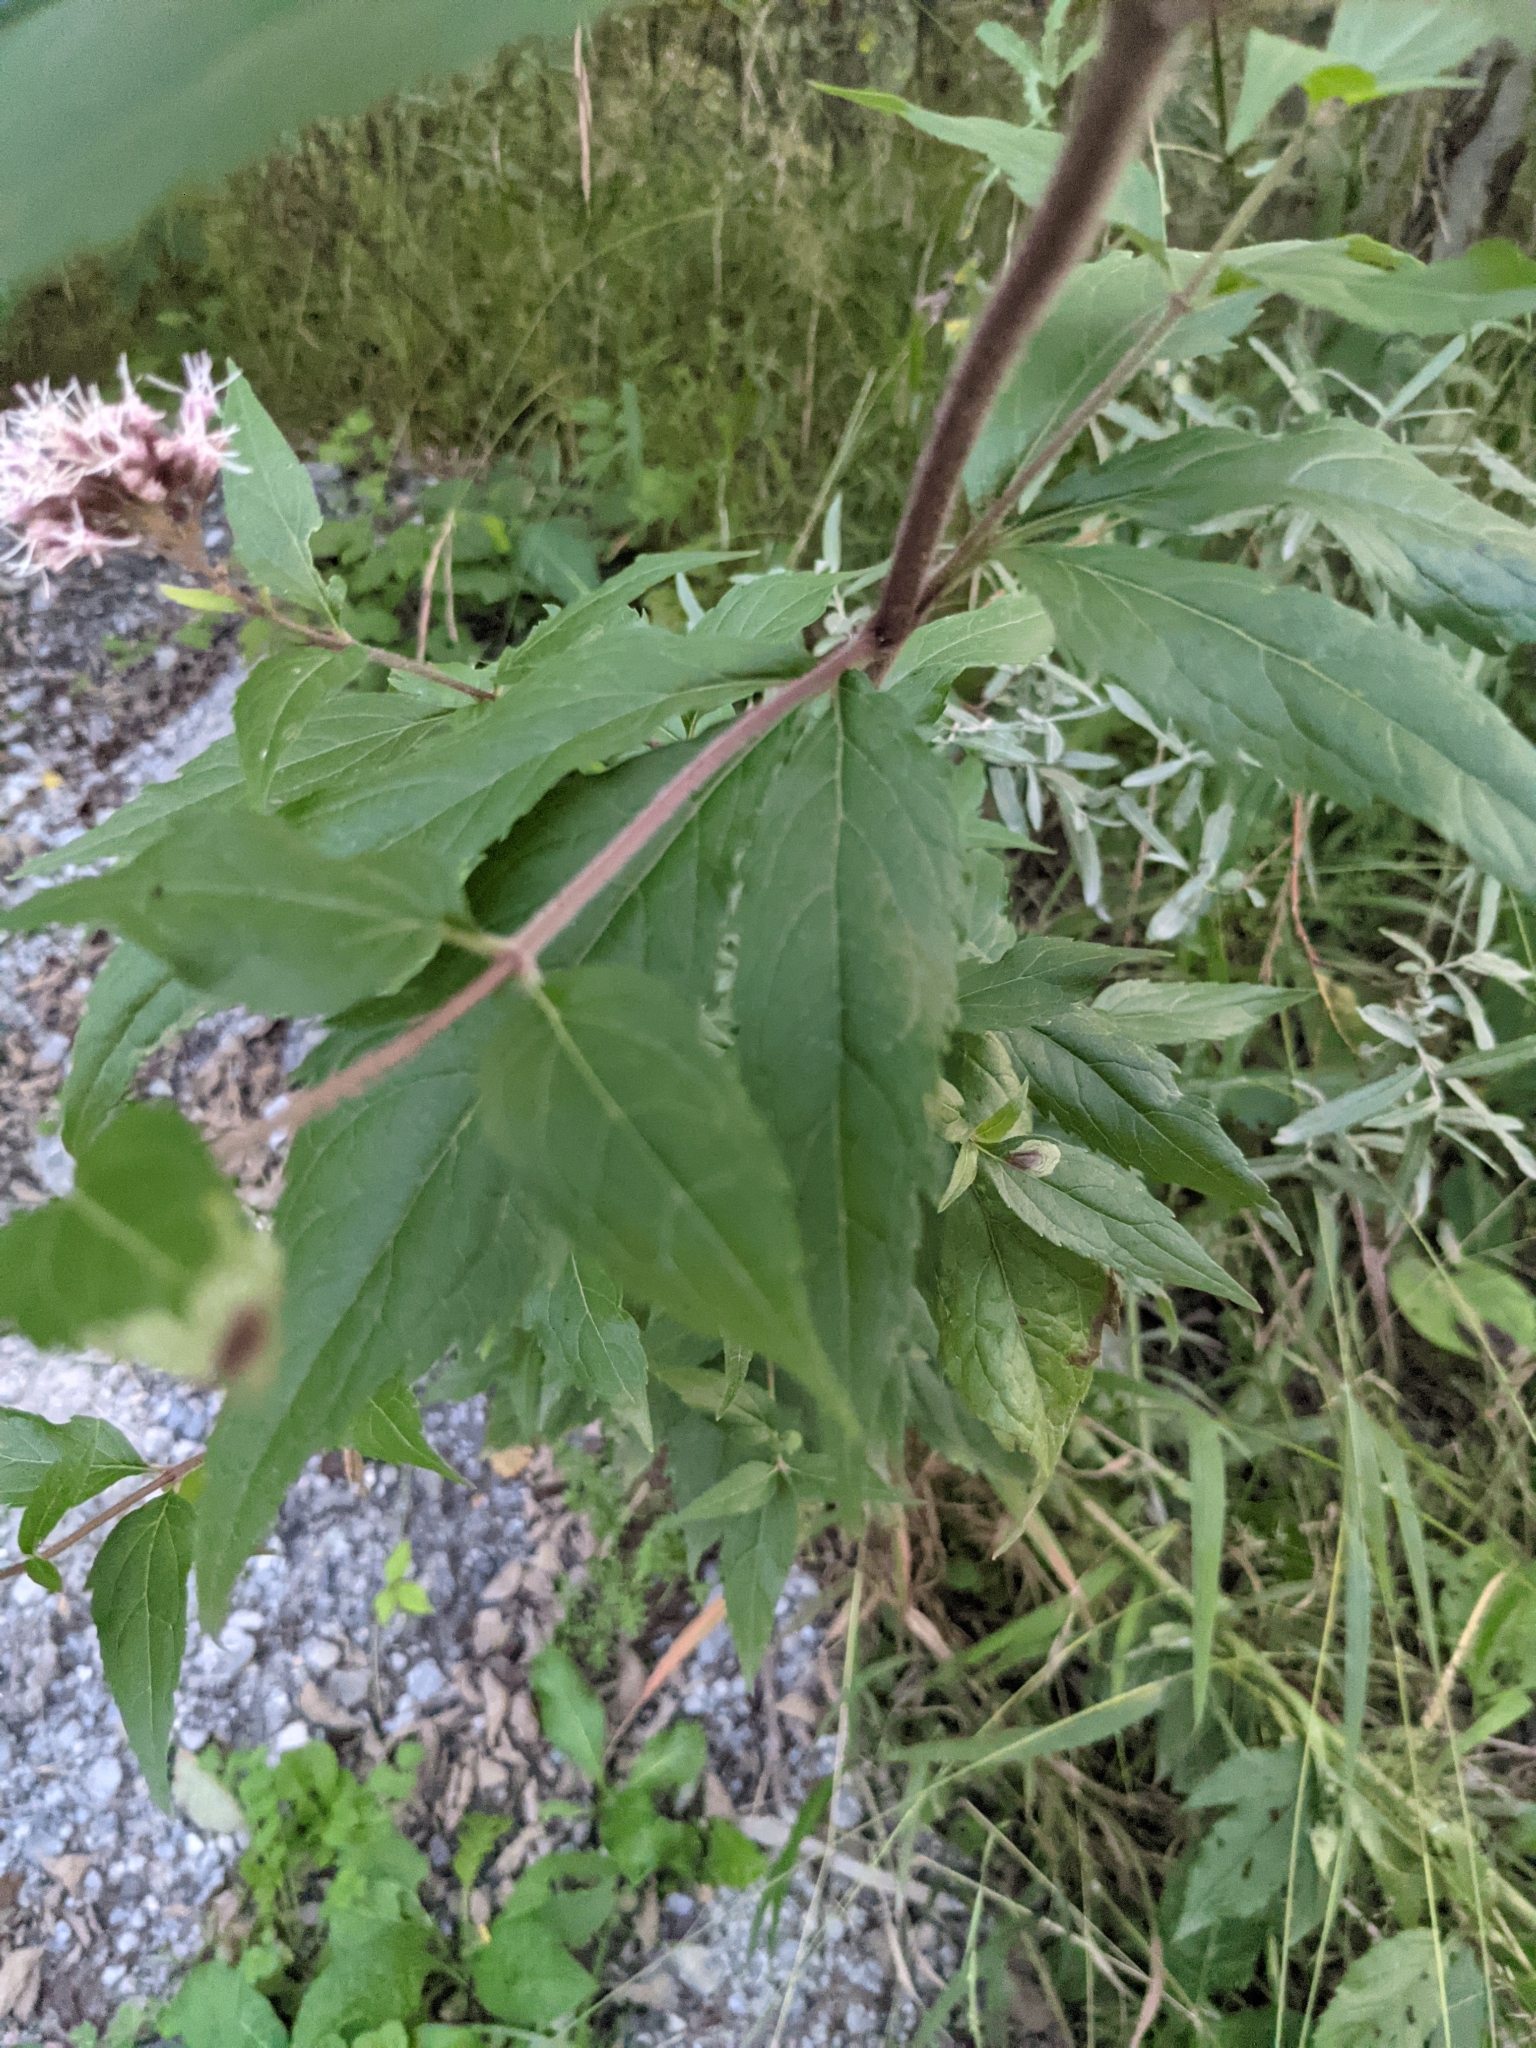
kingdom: Plantae
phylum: Tracheophyta
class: Magnoliopsida
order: Asterales
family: Asteraceae
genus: Eupatorium
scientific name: Eupatorium cannabinum
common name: Hemp-agrimony
